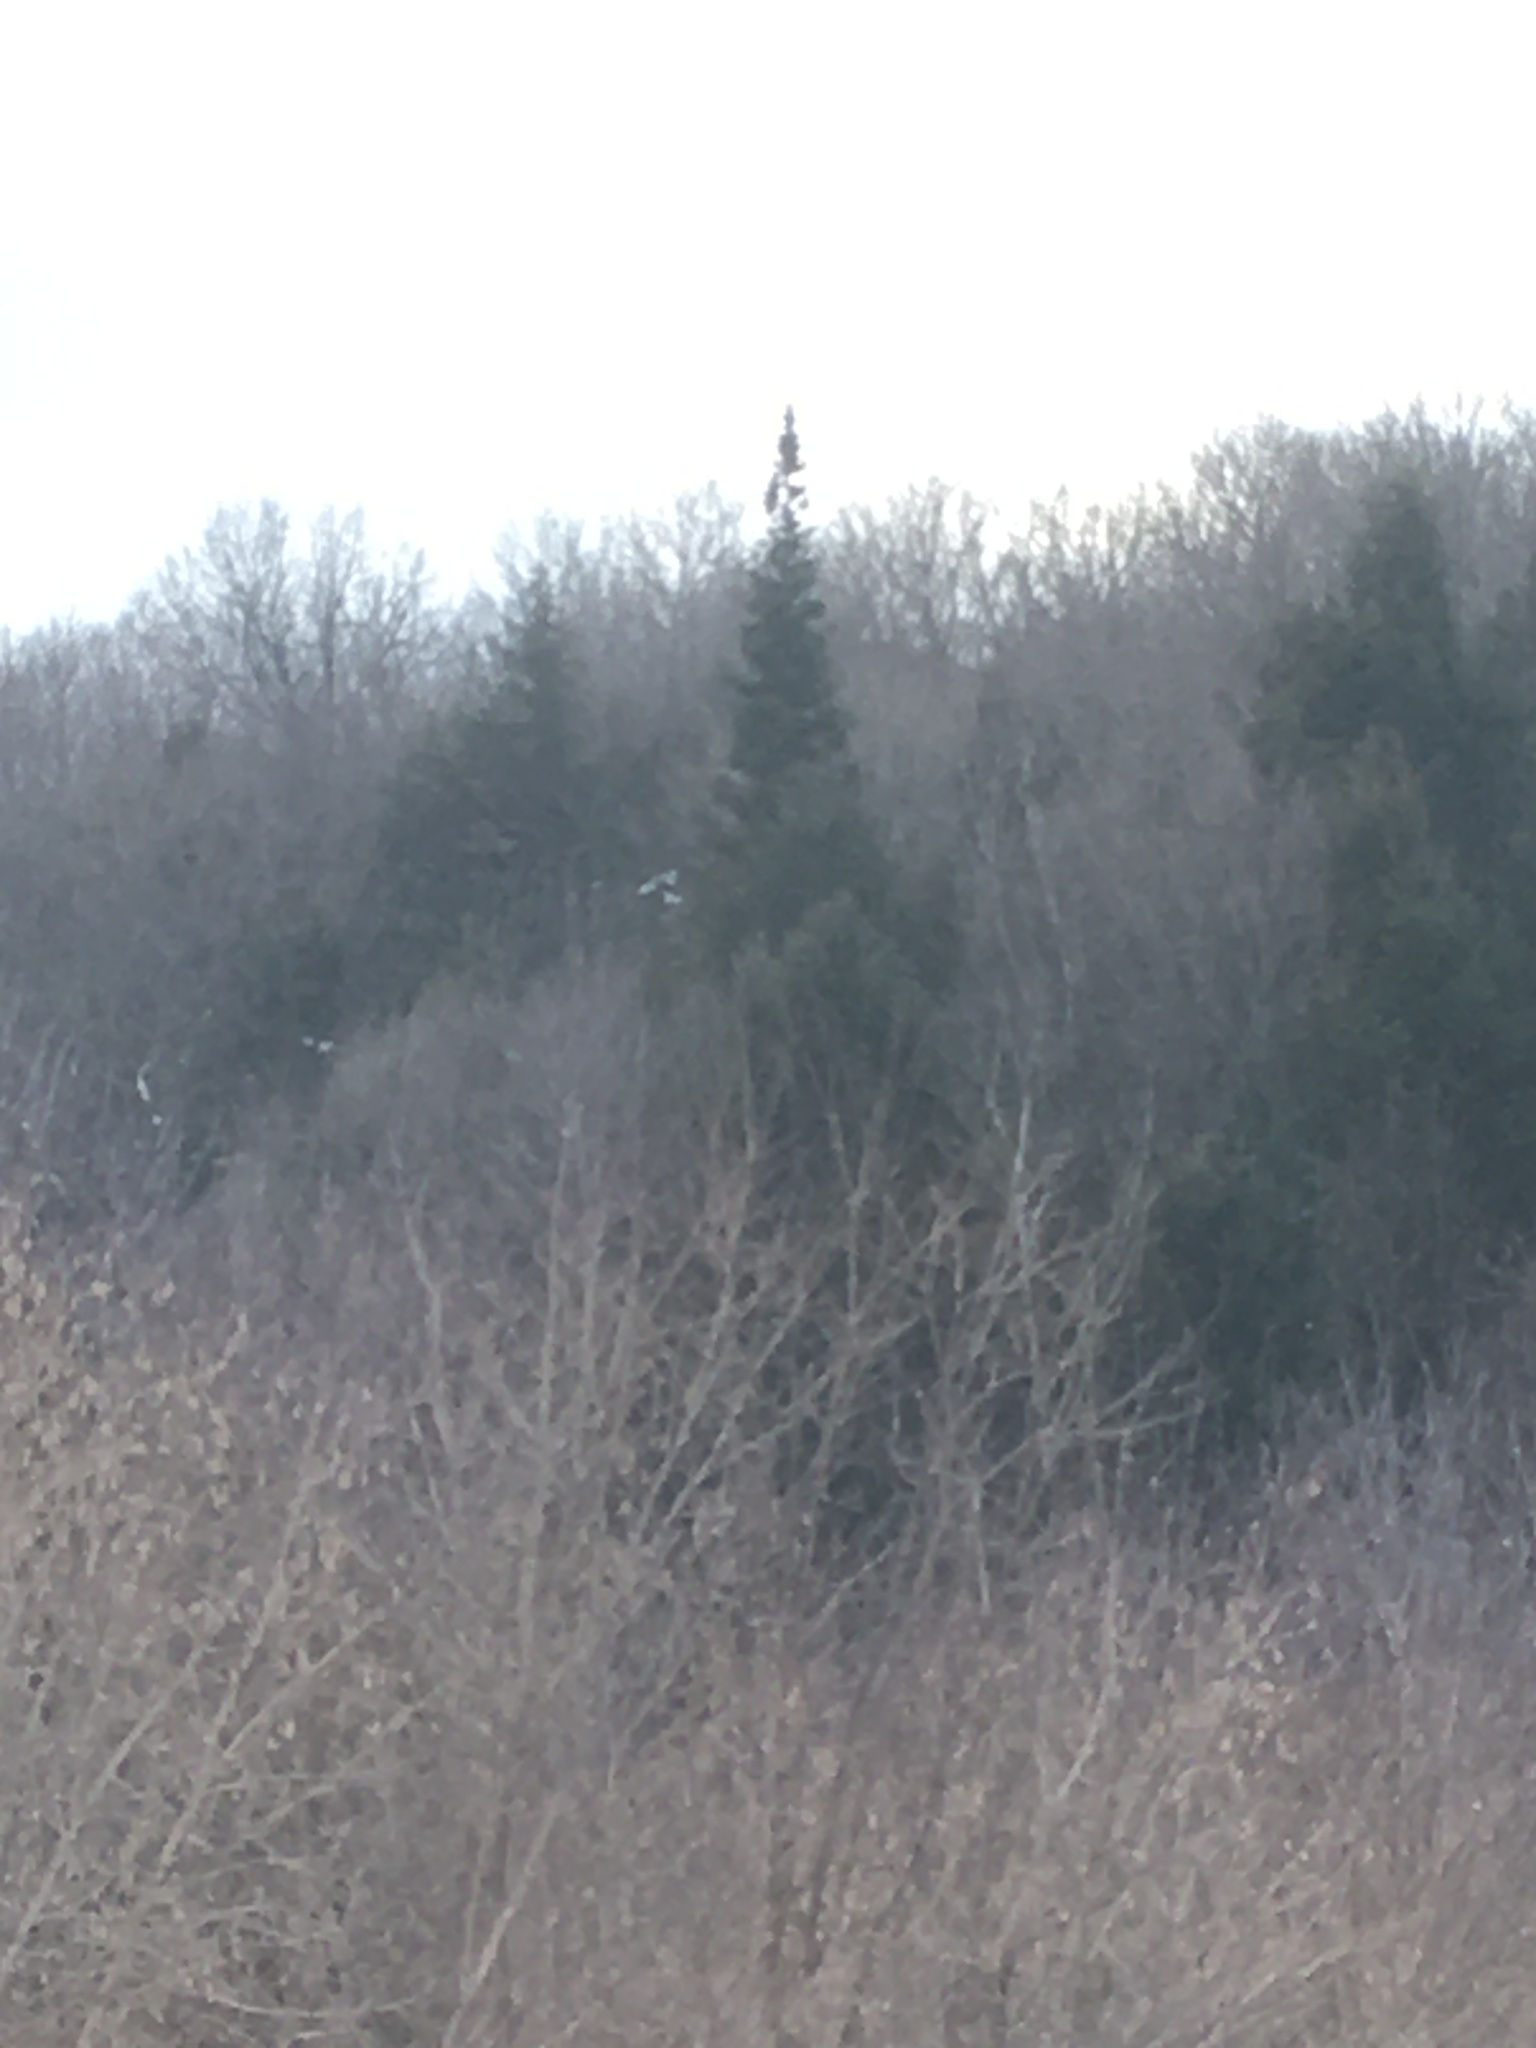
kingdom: Plantae
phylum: Tracheophyta
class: Pinopsida
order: Pinales
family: Pinaceae
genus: Abies
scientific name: Abies balsamea
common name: Balsam fir
